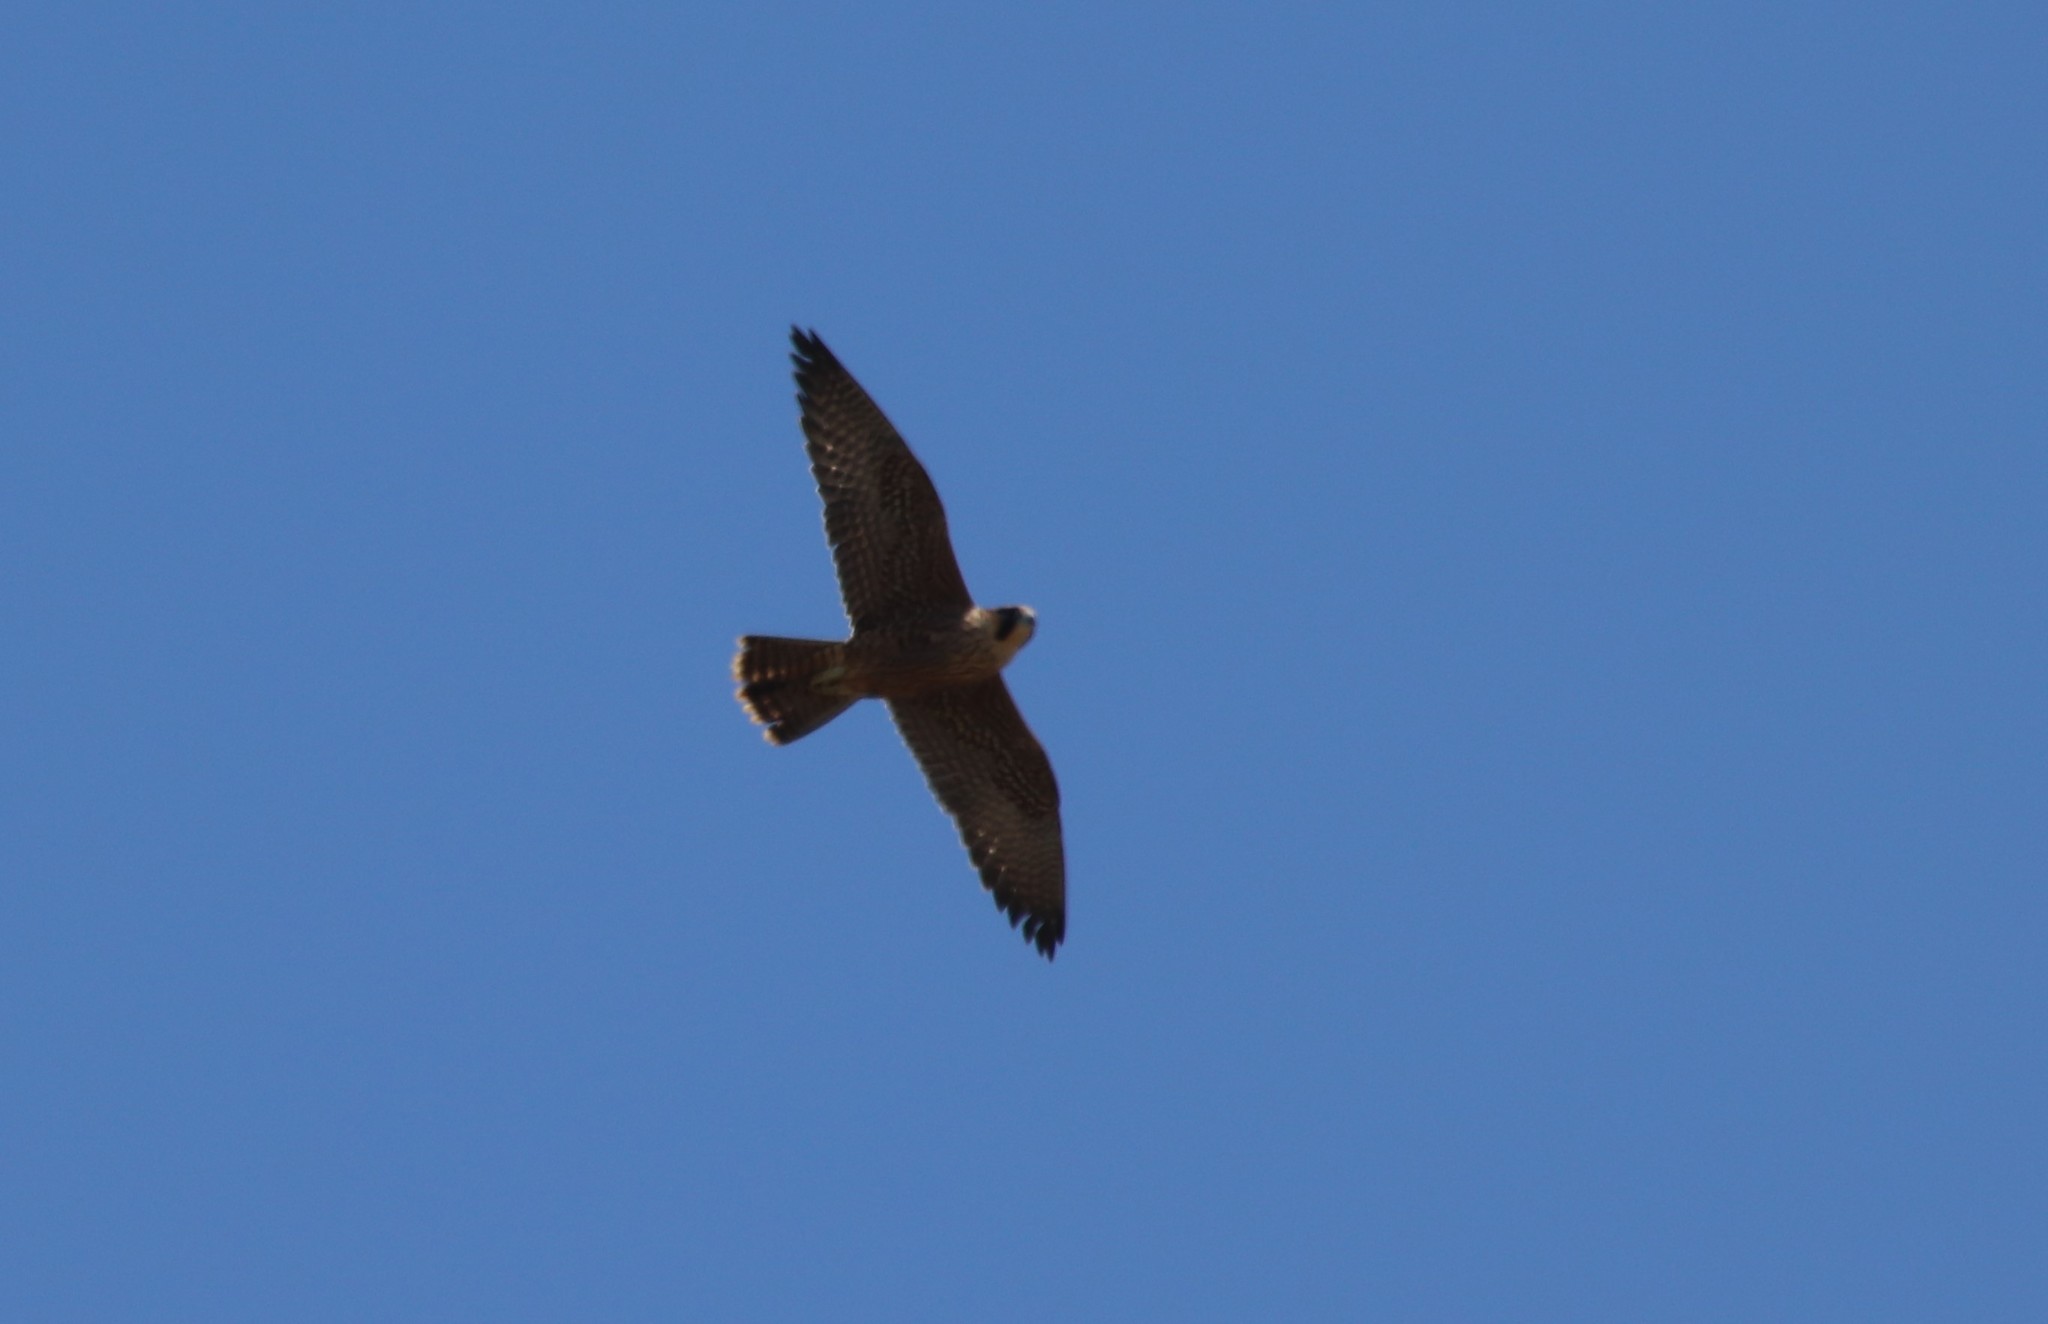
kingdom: Animalia
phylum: Chordata
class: Aves
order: Falconiformes
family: Falconidae
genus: Falco
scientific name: Falco peregrinus
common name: Peregrine falcon
